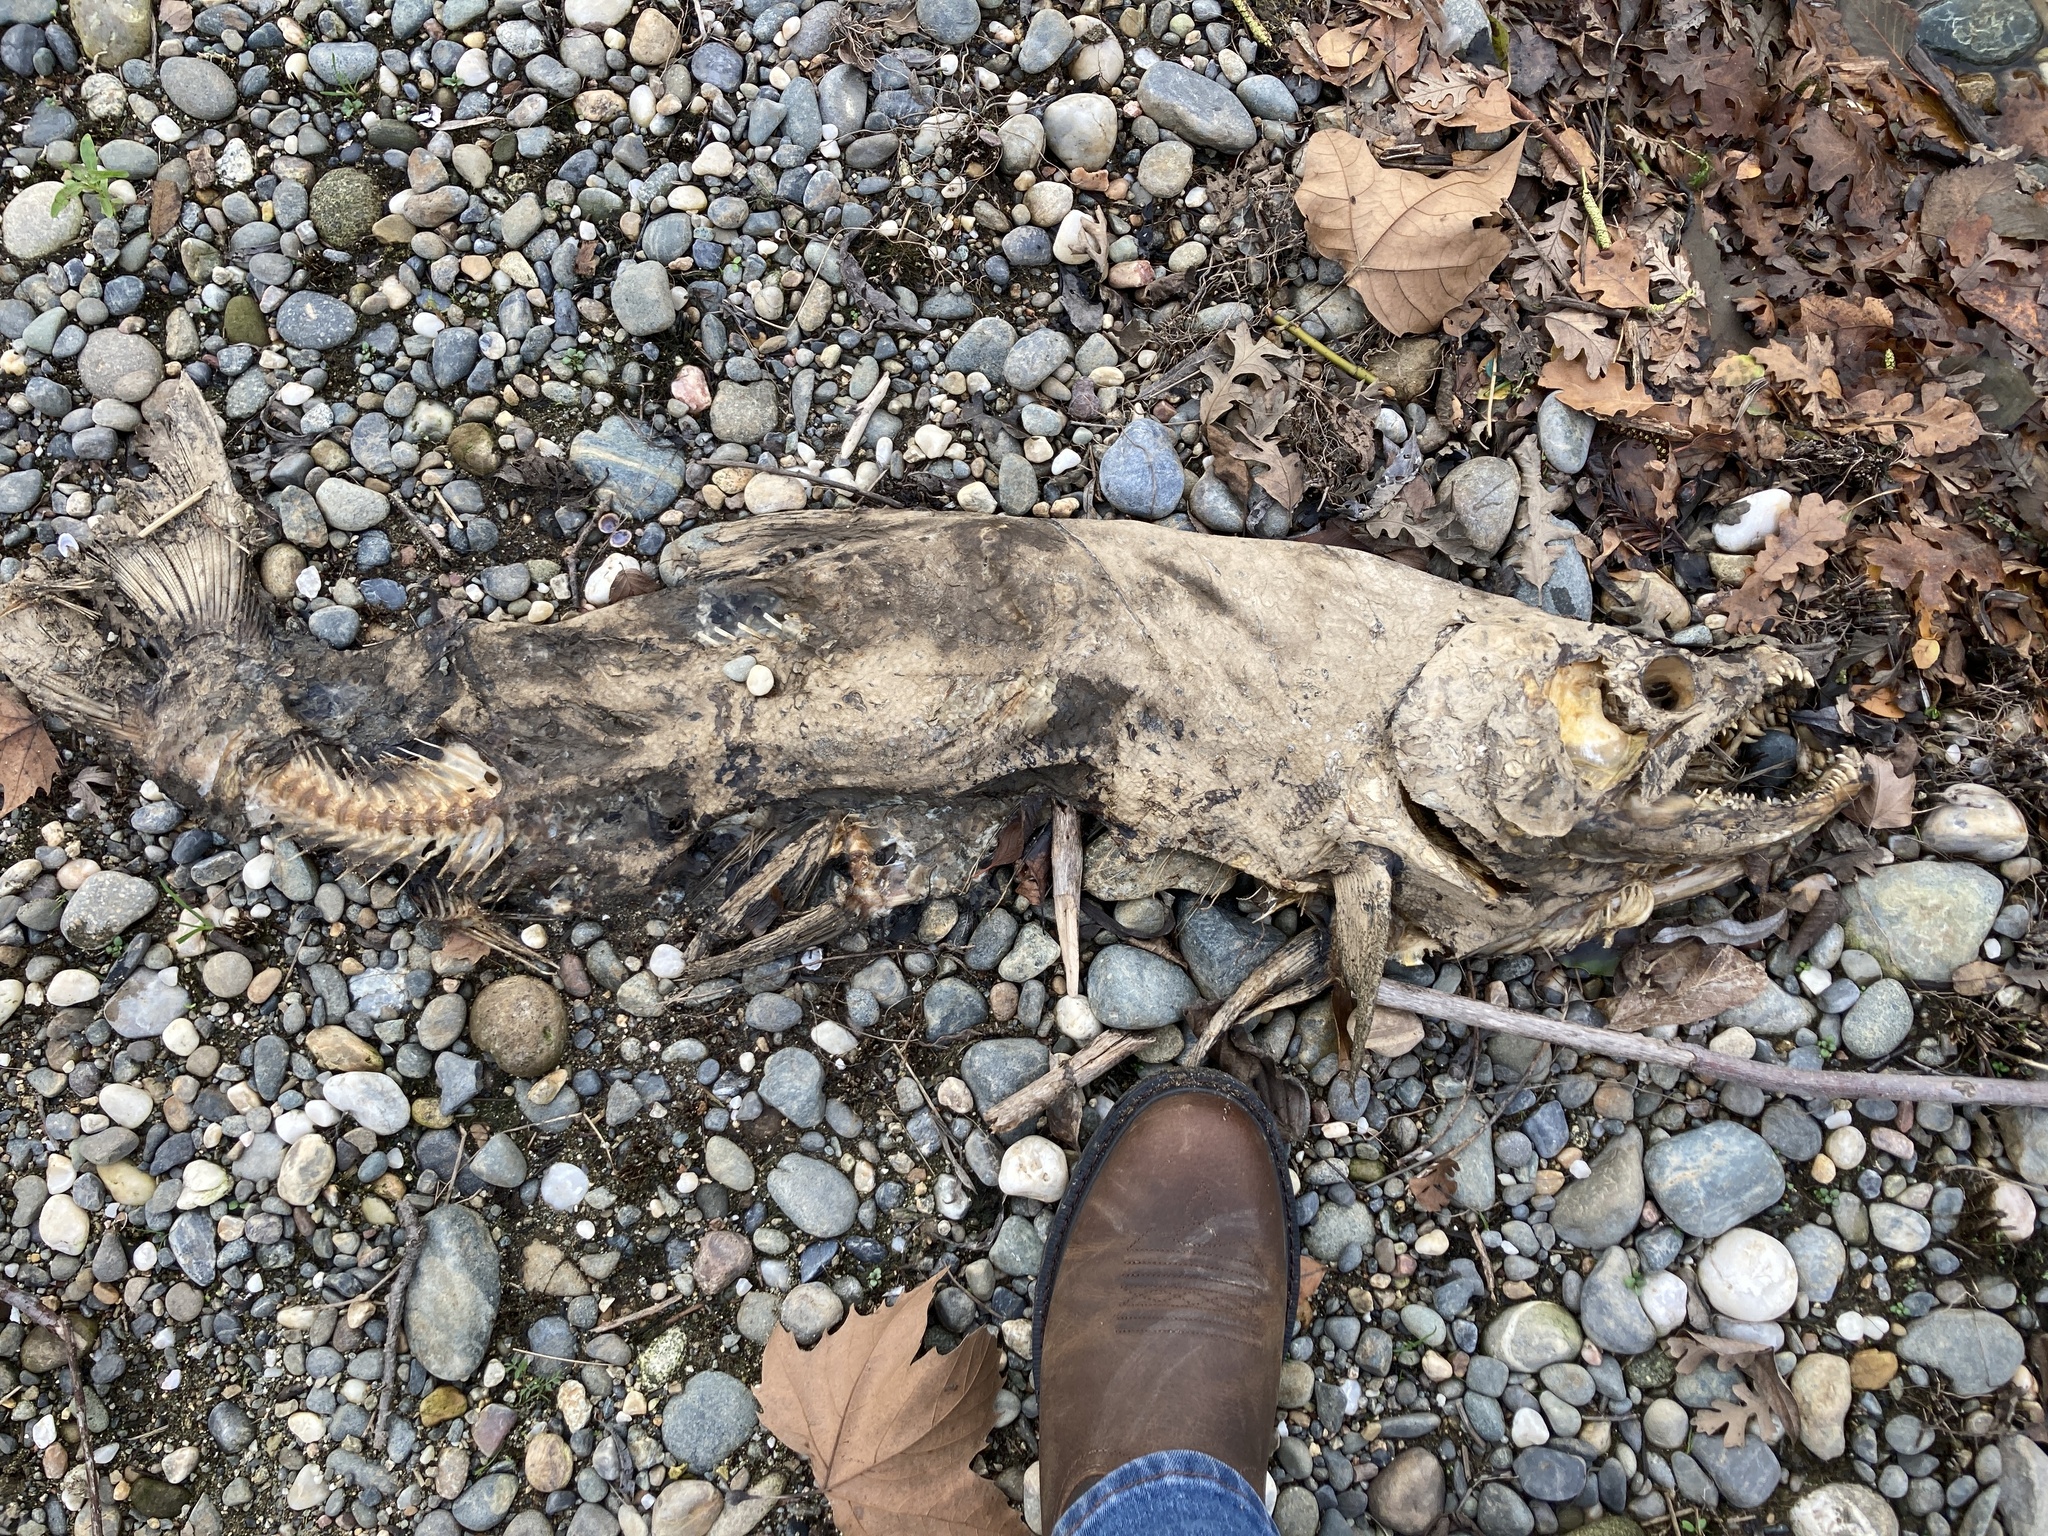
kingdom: Animalia
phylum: Chordata
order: Salmoniformes
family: Salmonidae
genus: Oncorhynchus
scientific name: Oncorhynchus tshawytscha
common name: Chinook salmon
